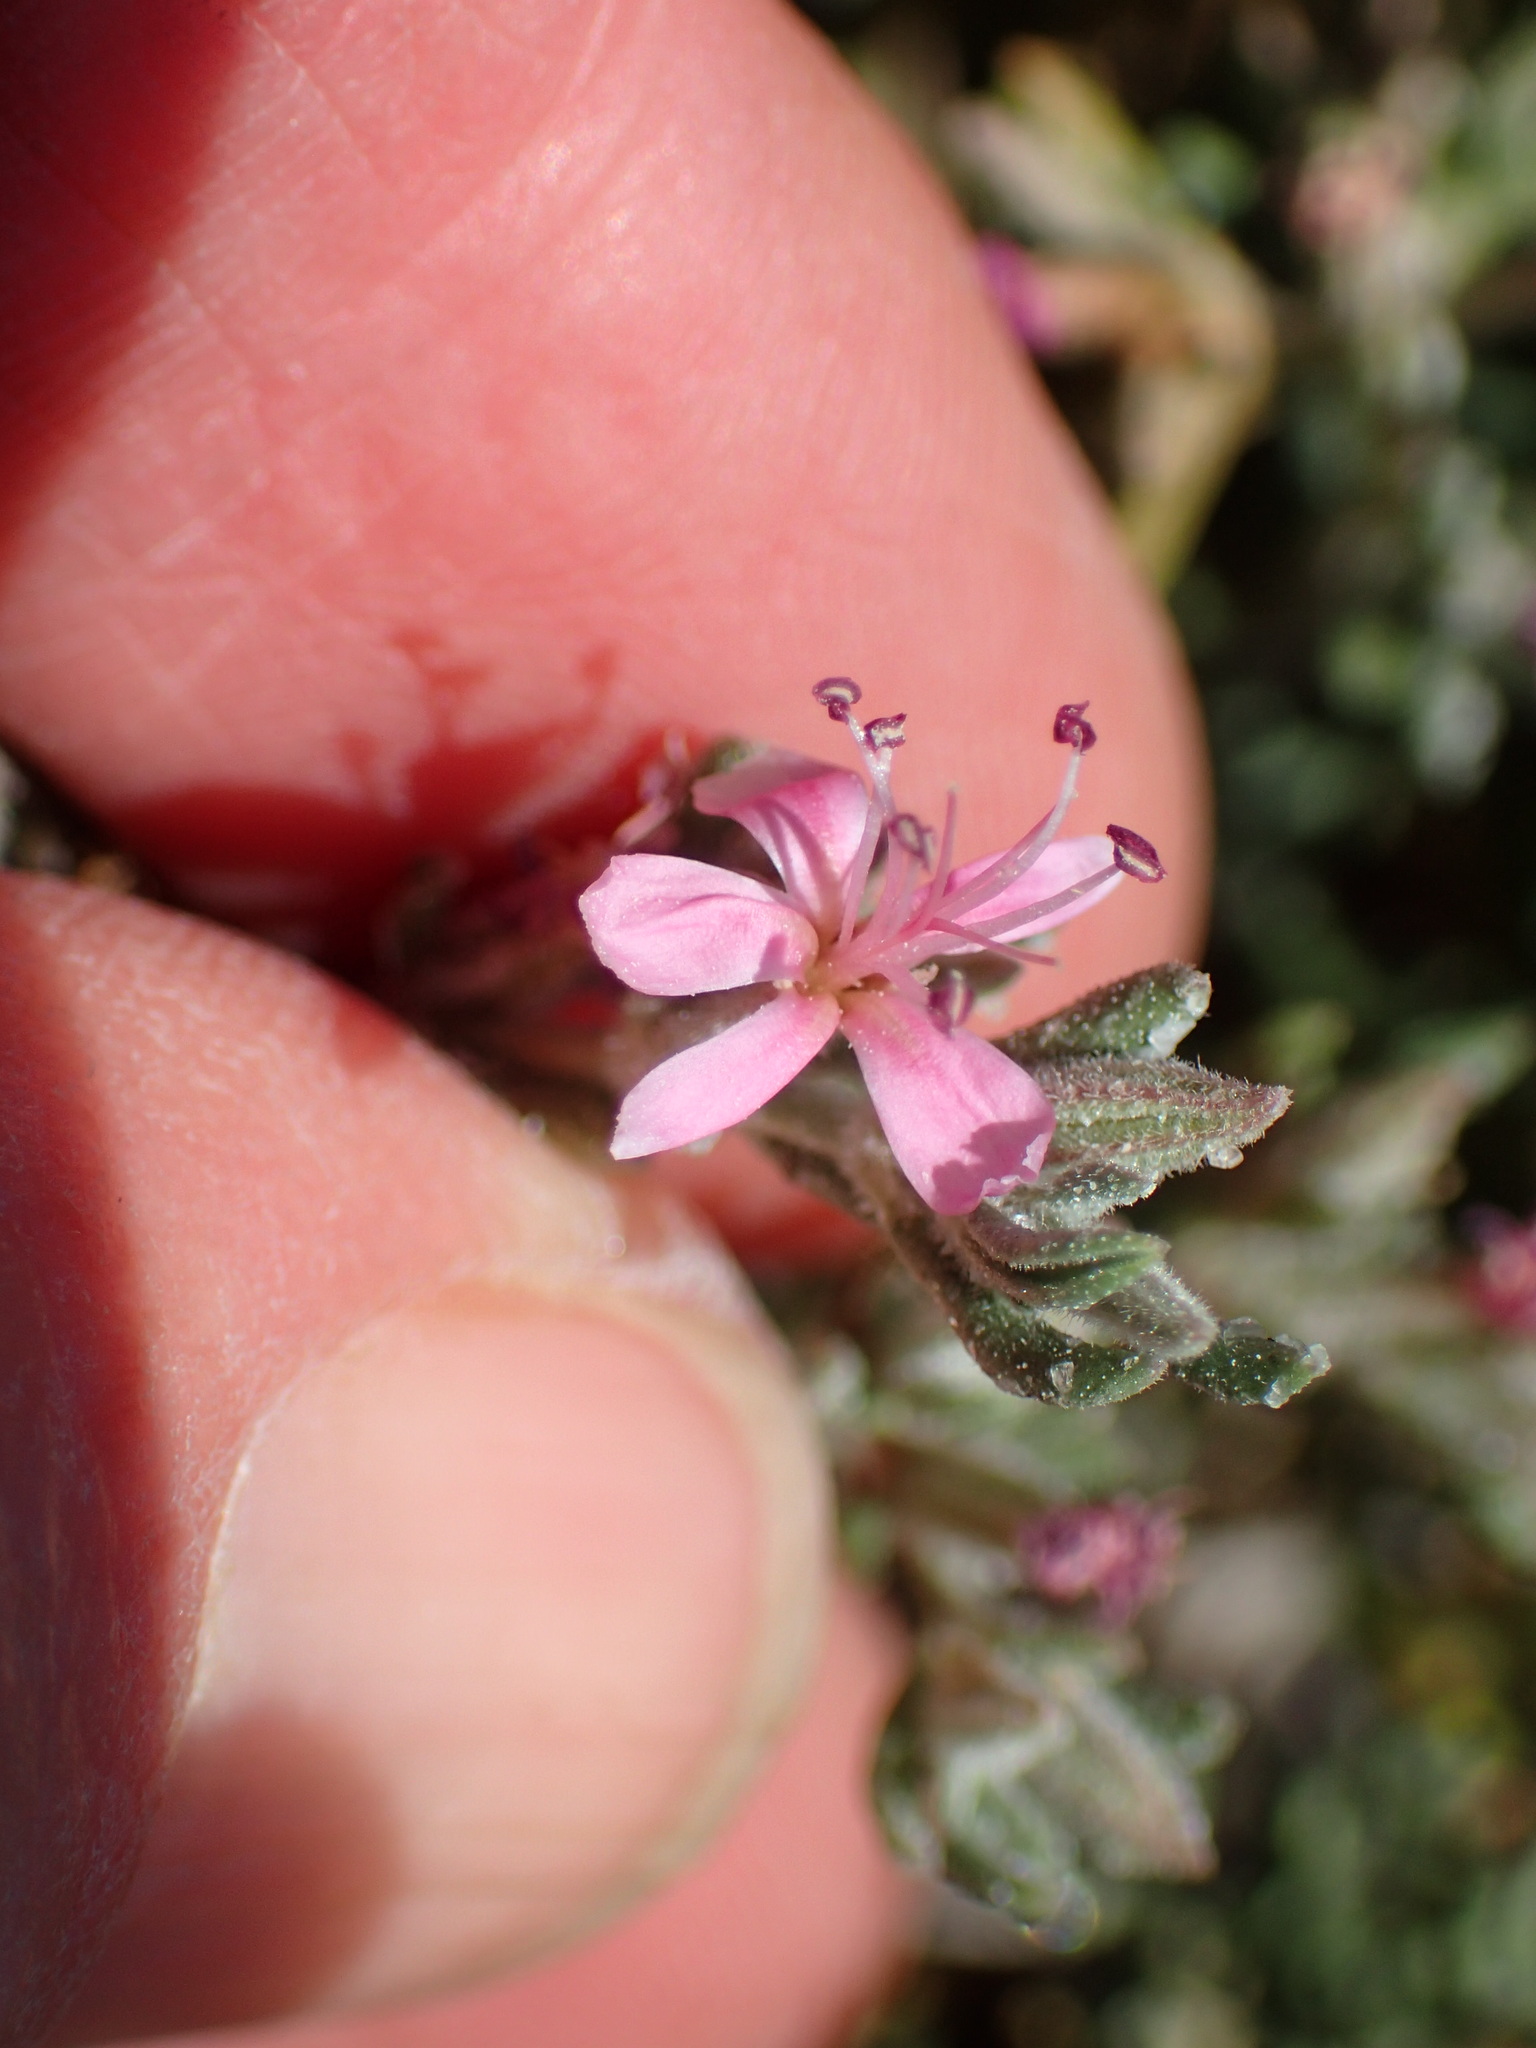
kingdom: Plantae
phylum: Tracheophyta
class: Magnoliopsida
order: Caryophyllales
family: Frankeniaceae
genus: Frankenia
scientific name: Frankenia salina
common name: Alkali seaheath
